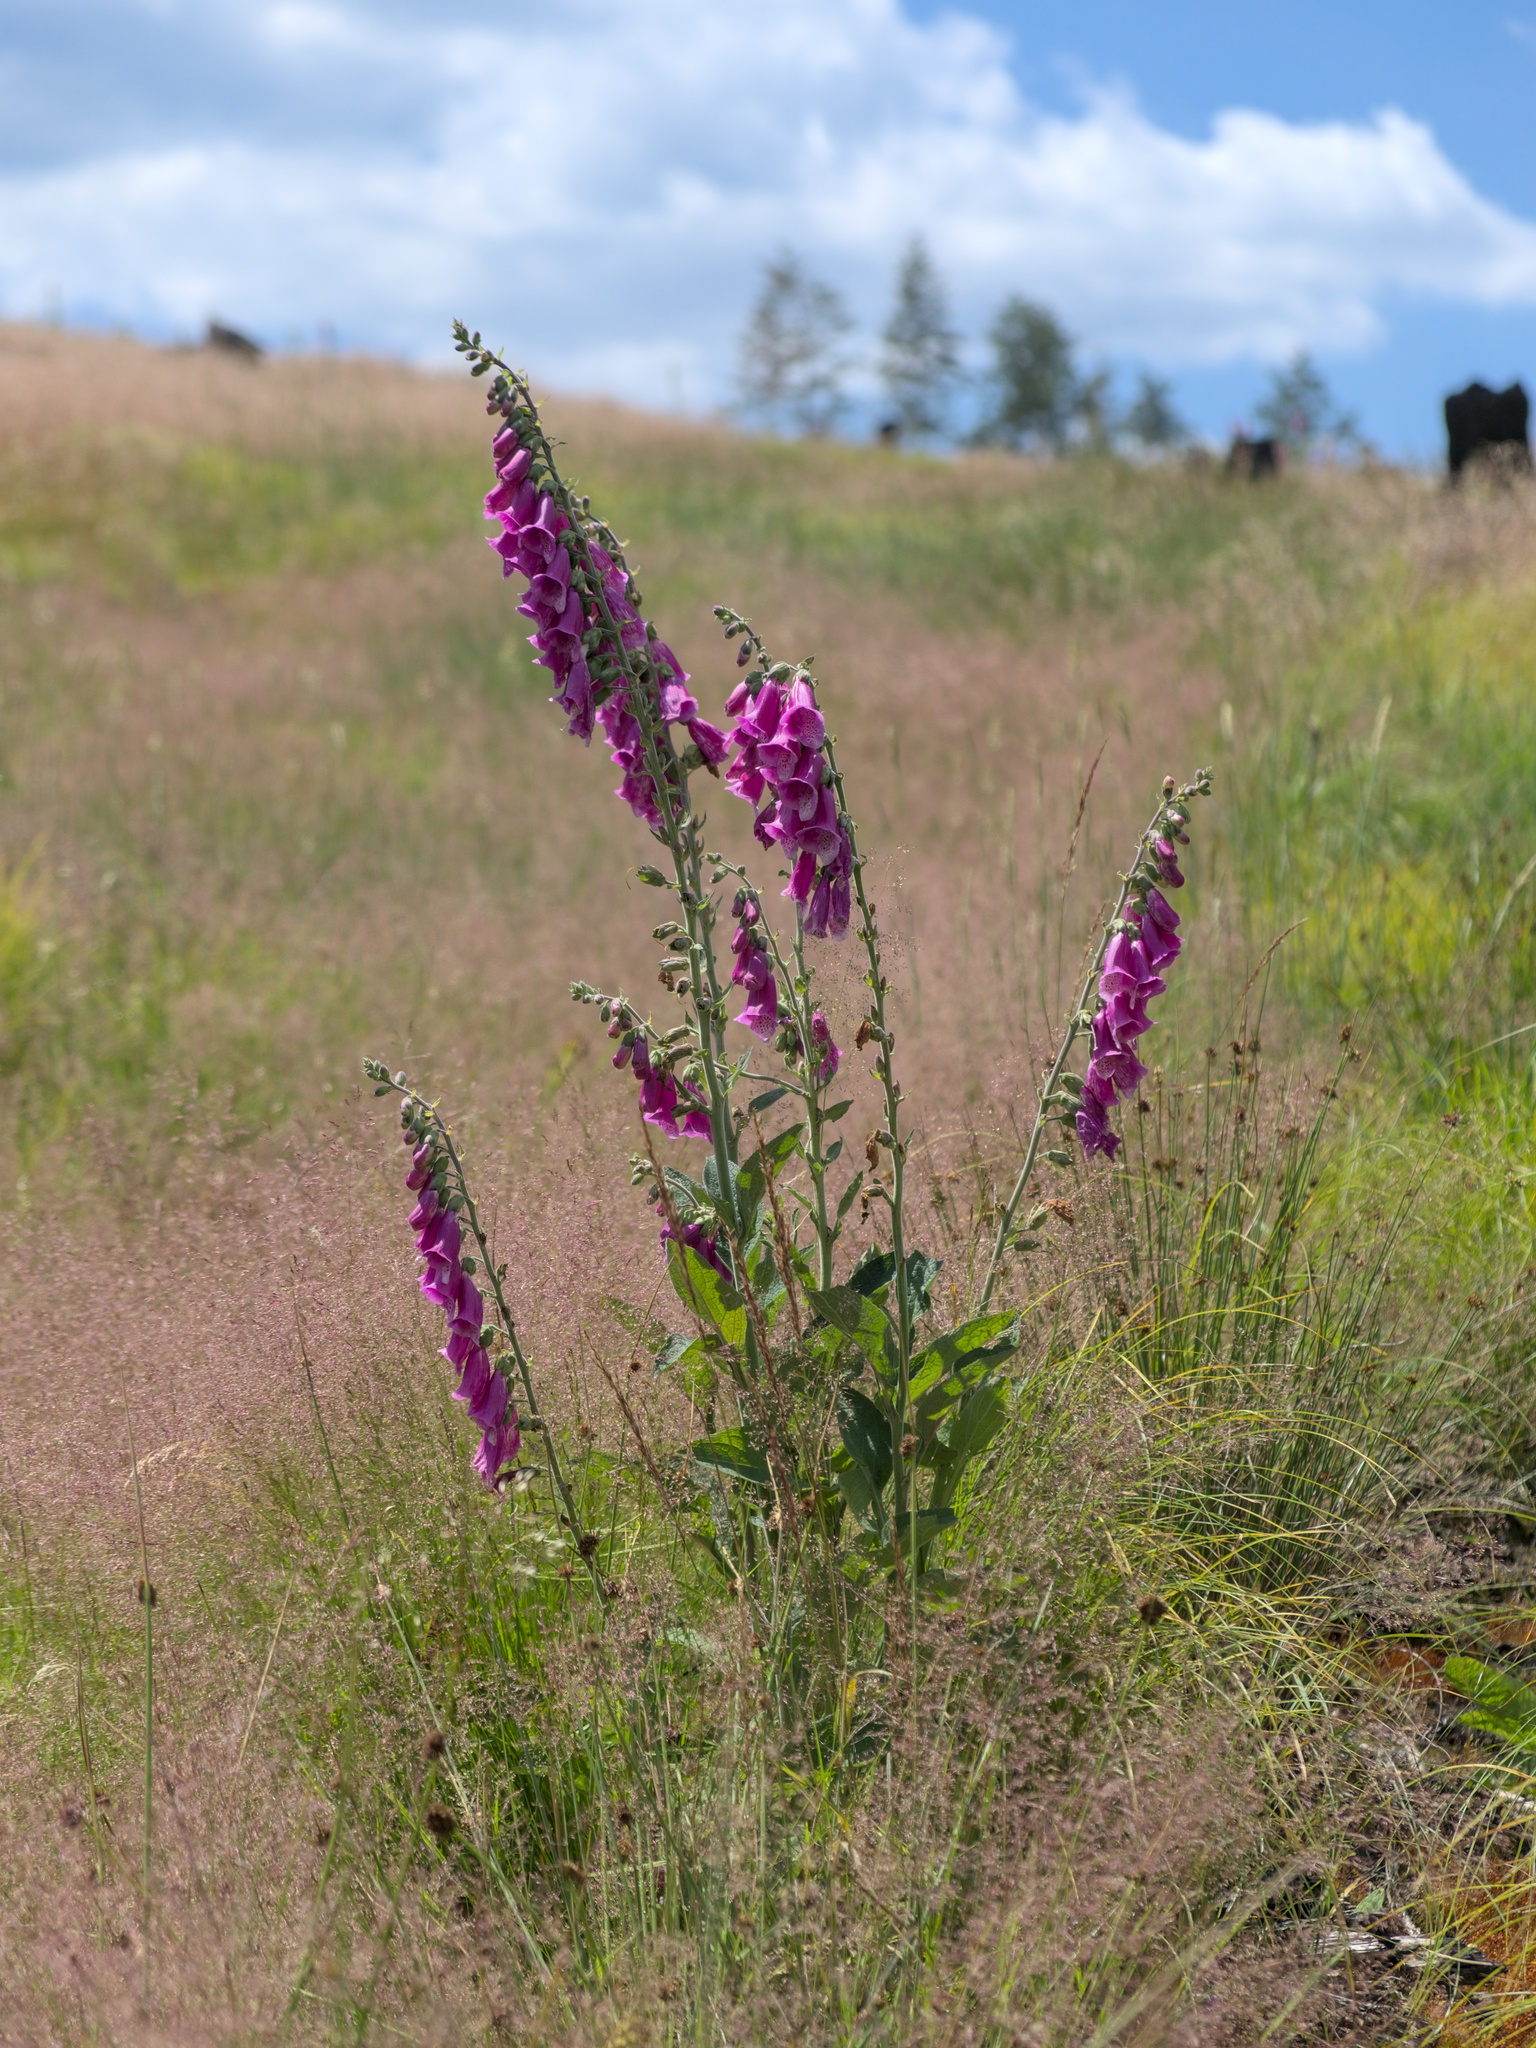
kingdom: Plantae
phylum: Tracheophyta
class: Magnoliopsida
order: Lamiales
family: Plantaginaceae
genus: Digitalis
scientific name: Digitalis purpurea
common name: Foxglove
